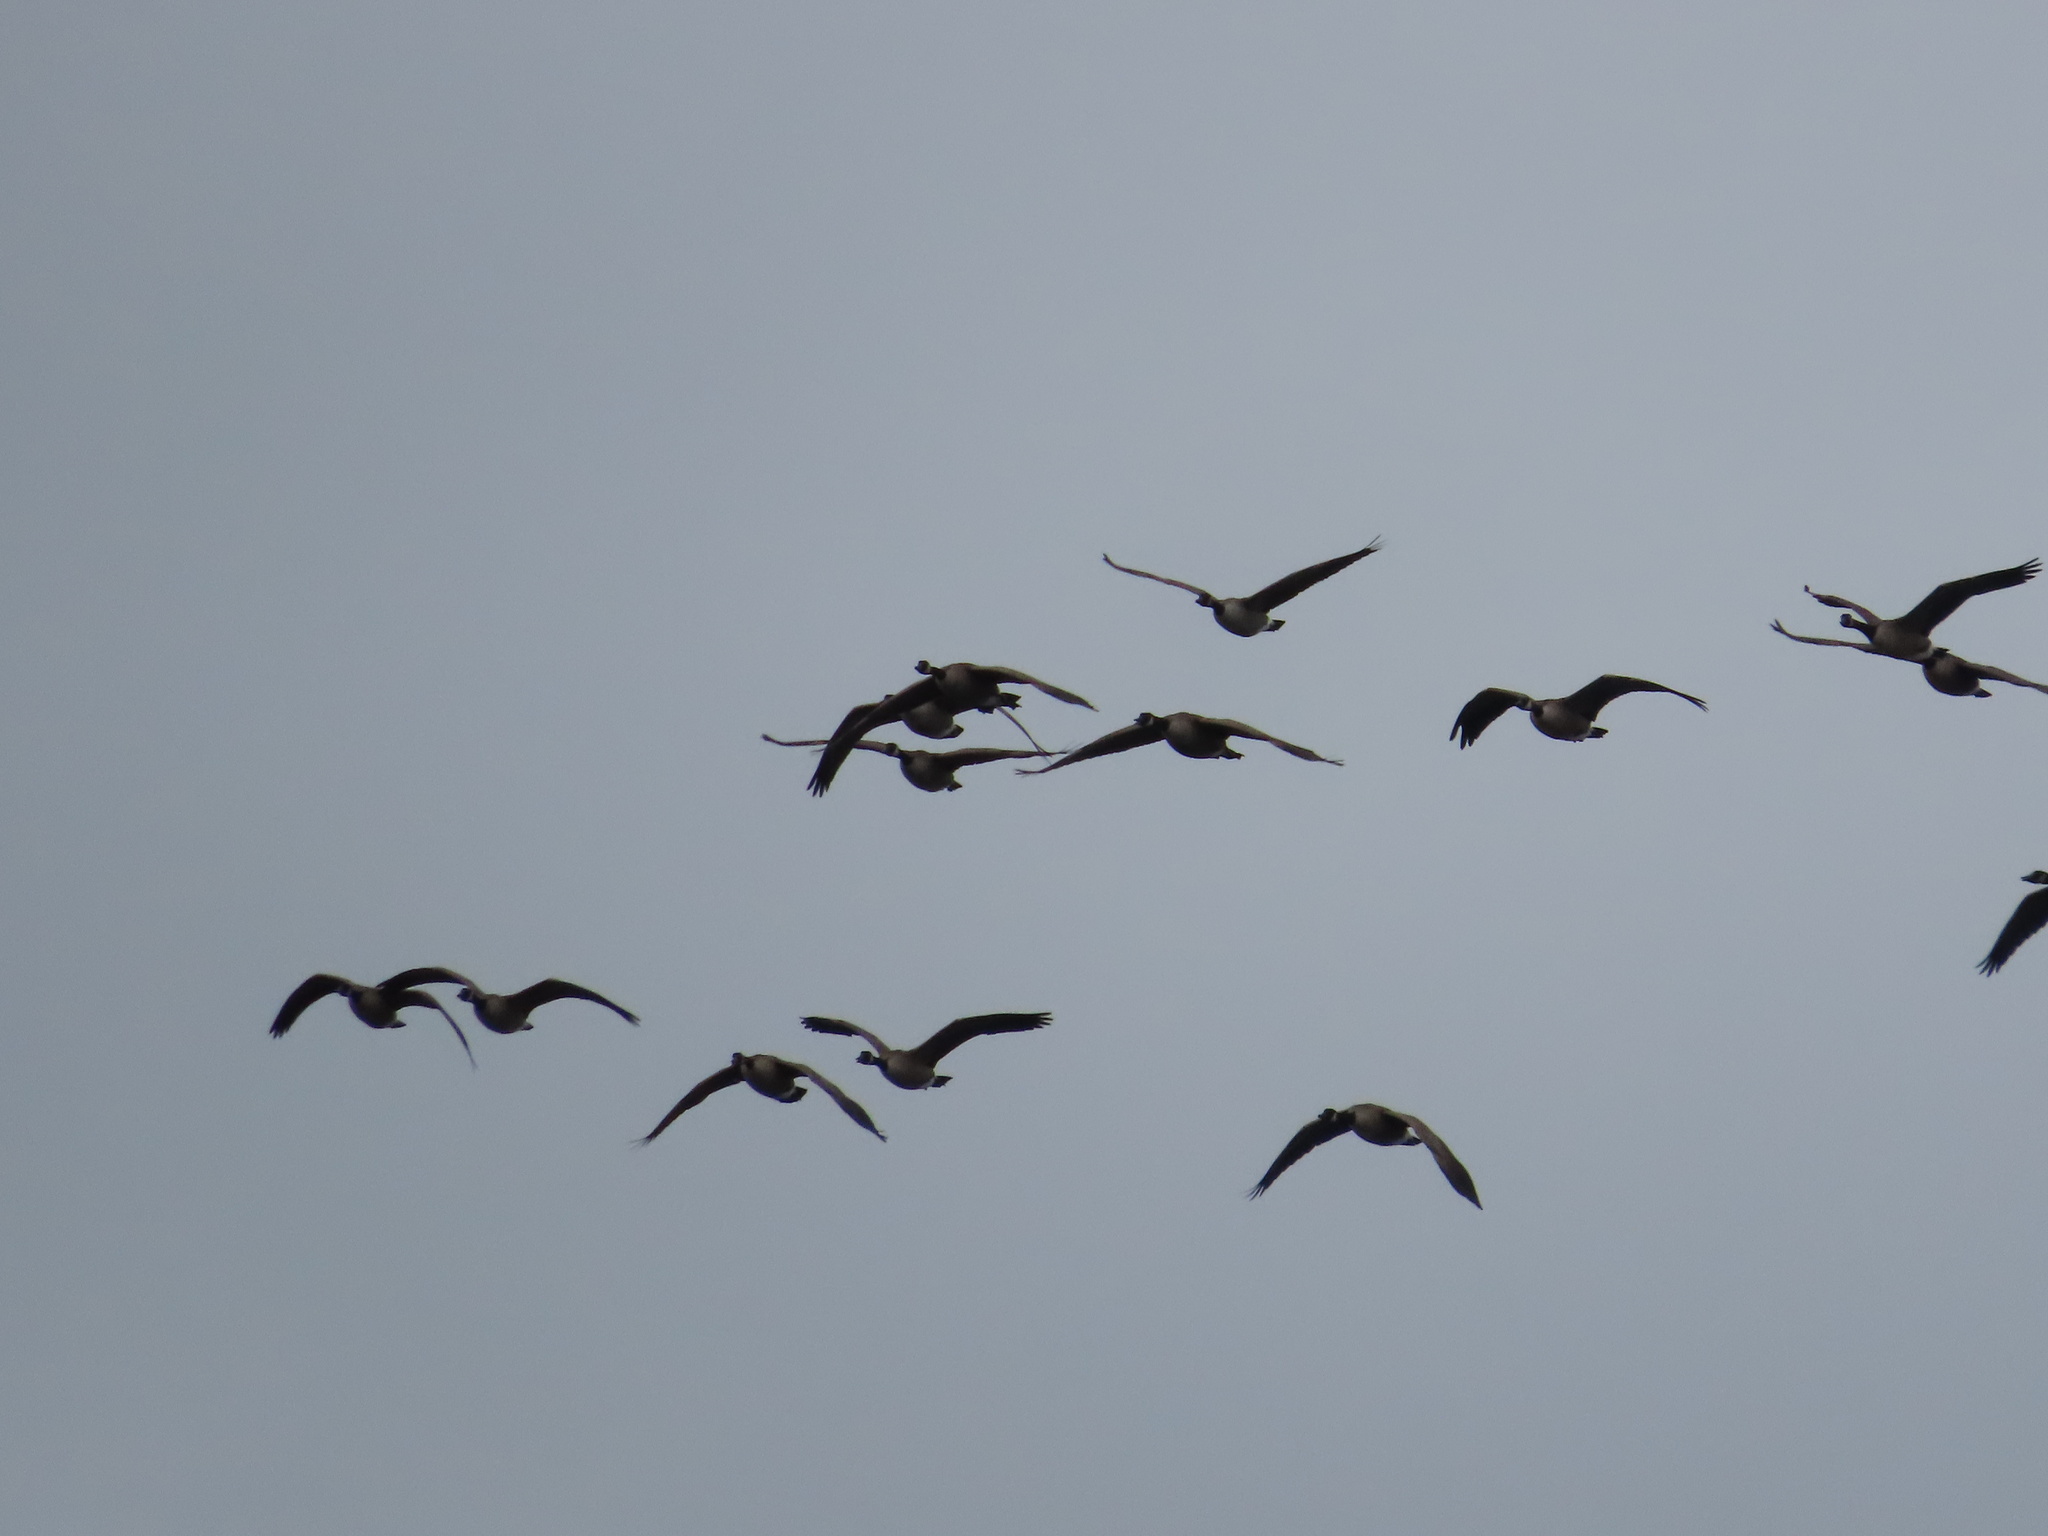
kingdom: Animalia
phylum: Chordata
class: Aves
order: Anseriformes
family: Anatidae
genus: Branta
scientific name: Branta canadensis
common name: Canada goose
